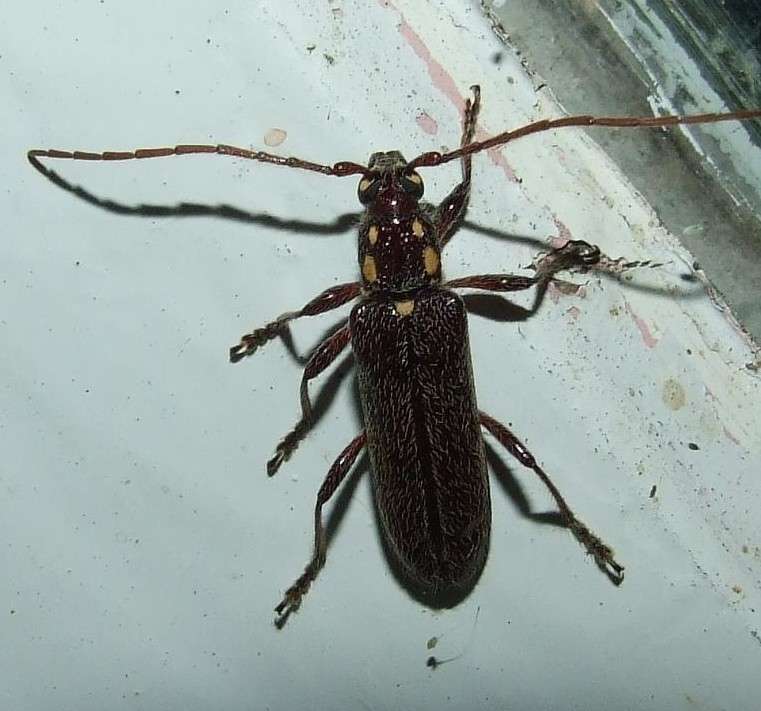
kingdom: Animalia
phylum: Arthropoda
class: Insecta
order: Coleoptera
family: Cerambycidae
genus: Strongylurus
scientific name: Strongylurus ceresioides
